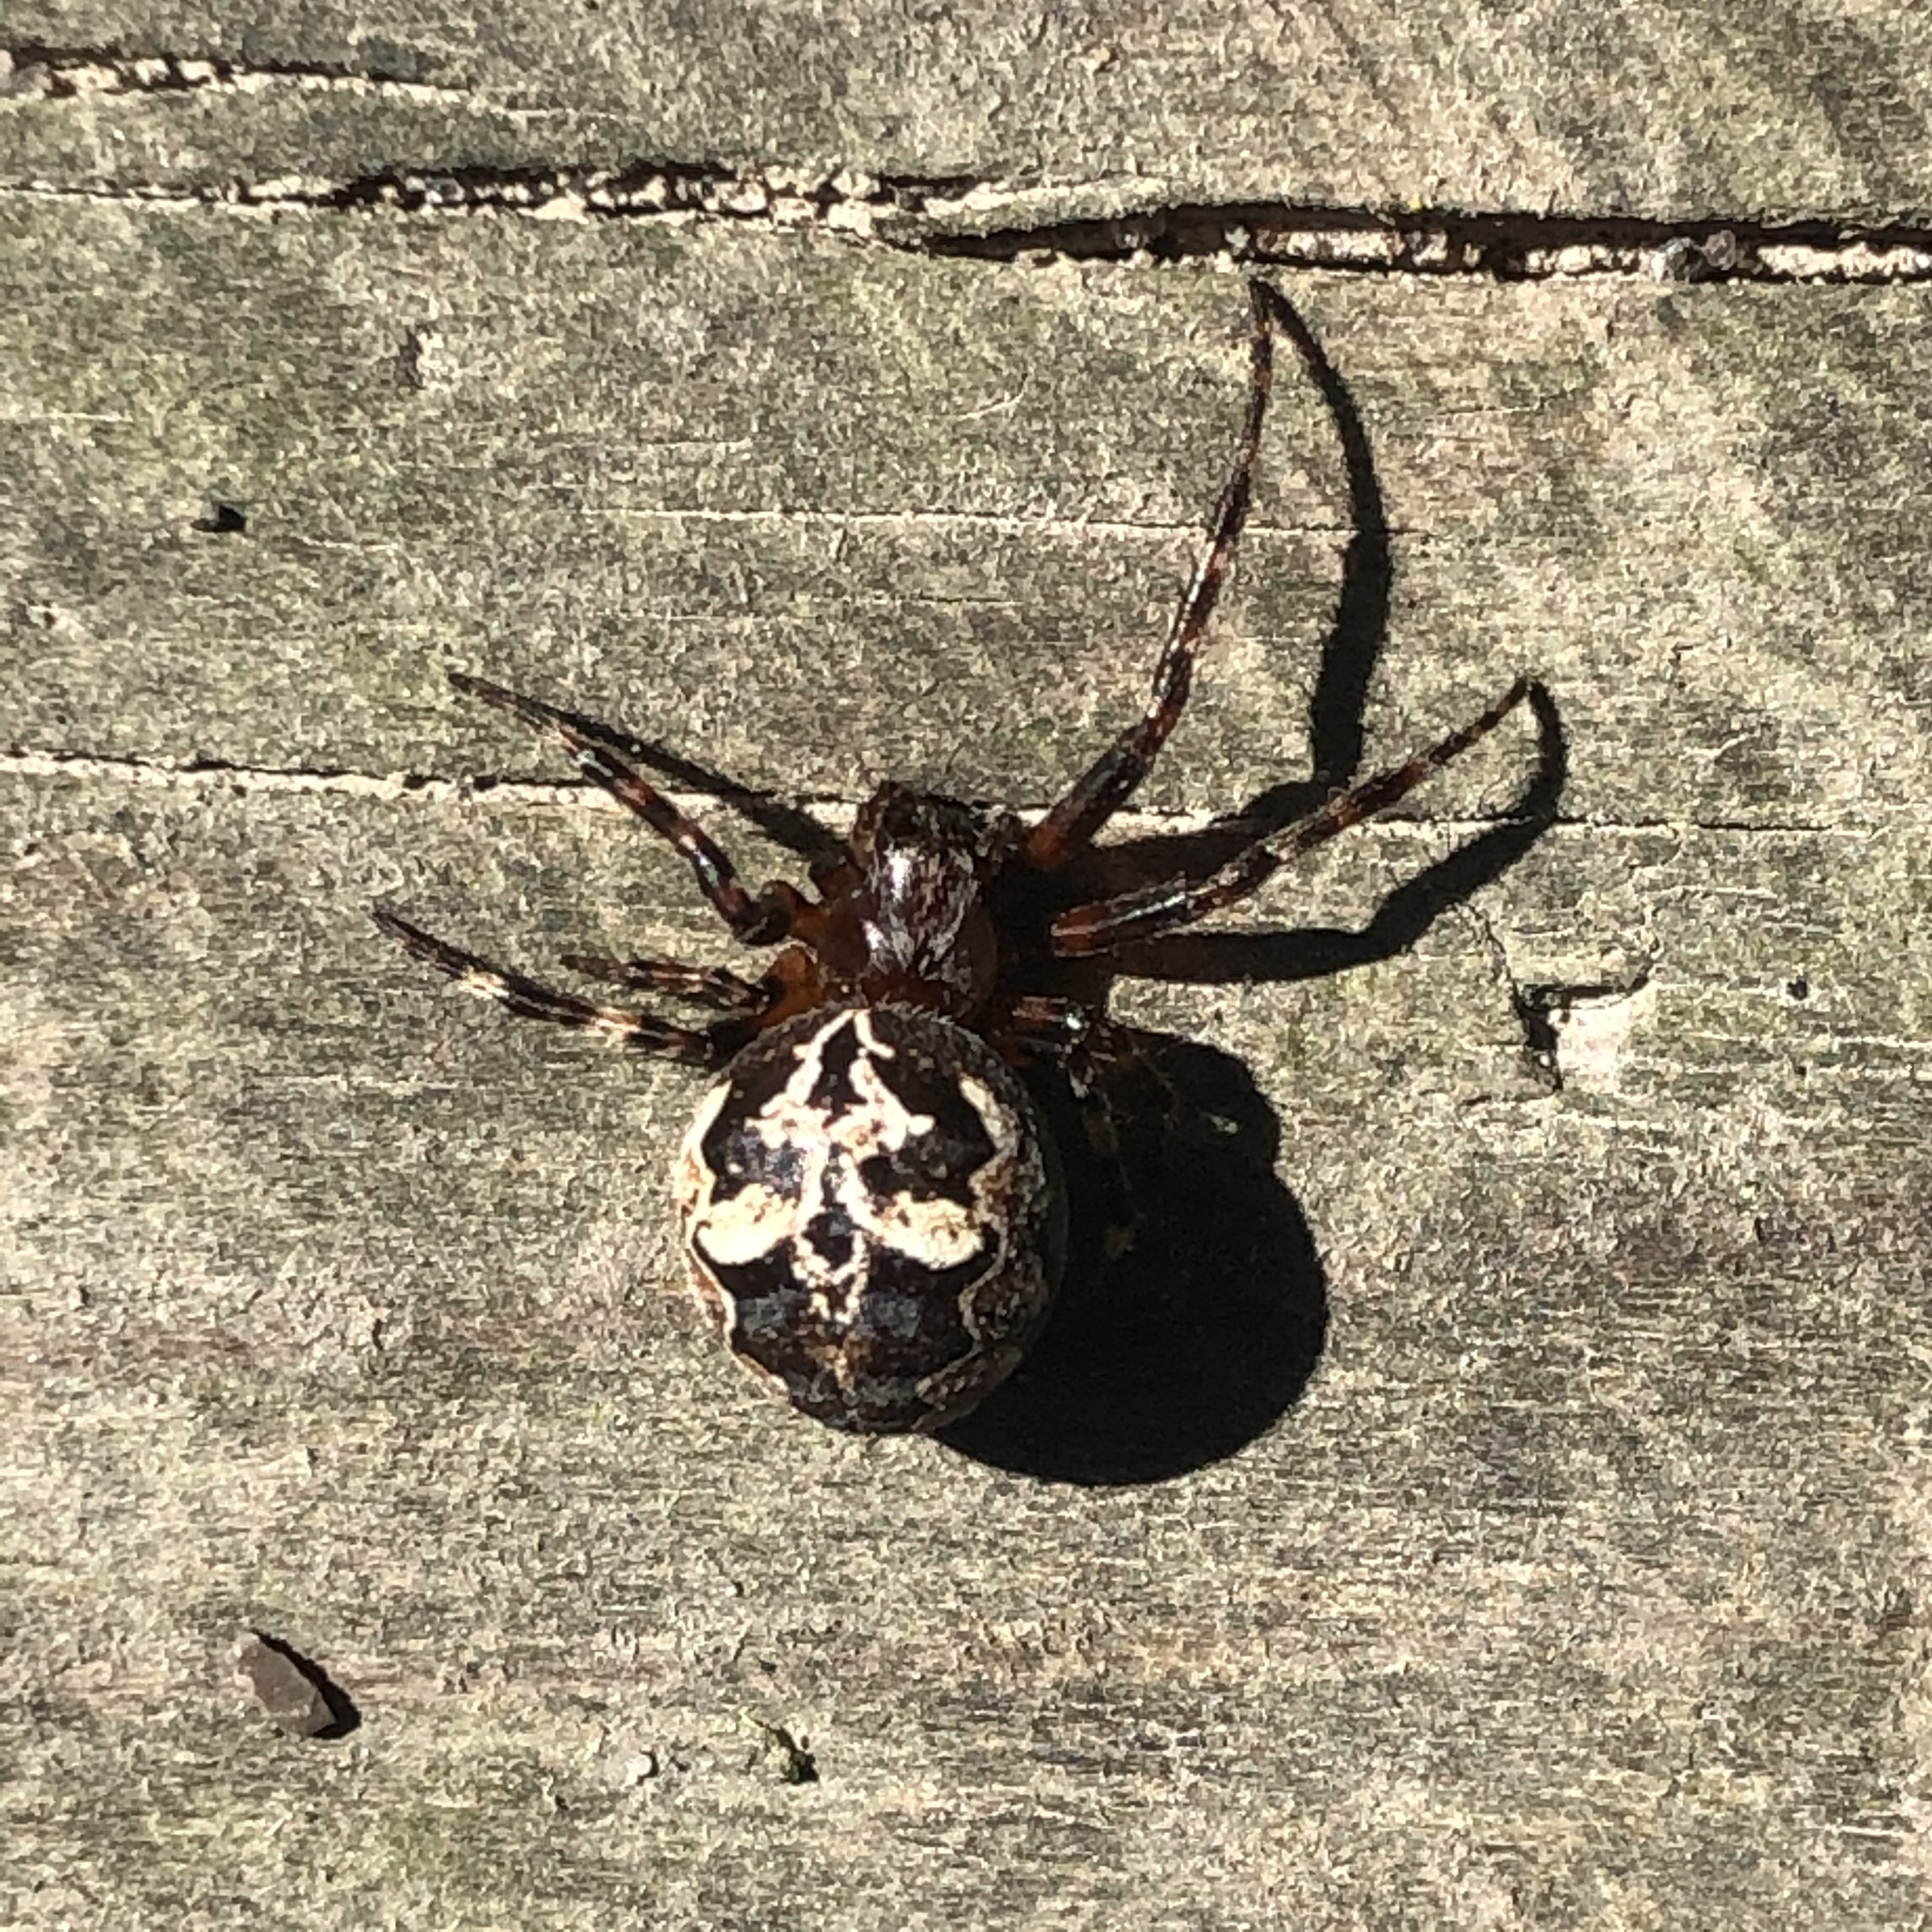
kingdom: Animalia
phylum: Arthropoda
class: Arachnida
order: Araneae
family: Araneidae
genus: Larinioides
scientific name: Larinioides patagiatus
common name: Ornamental orbweaver
